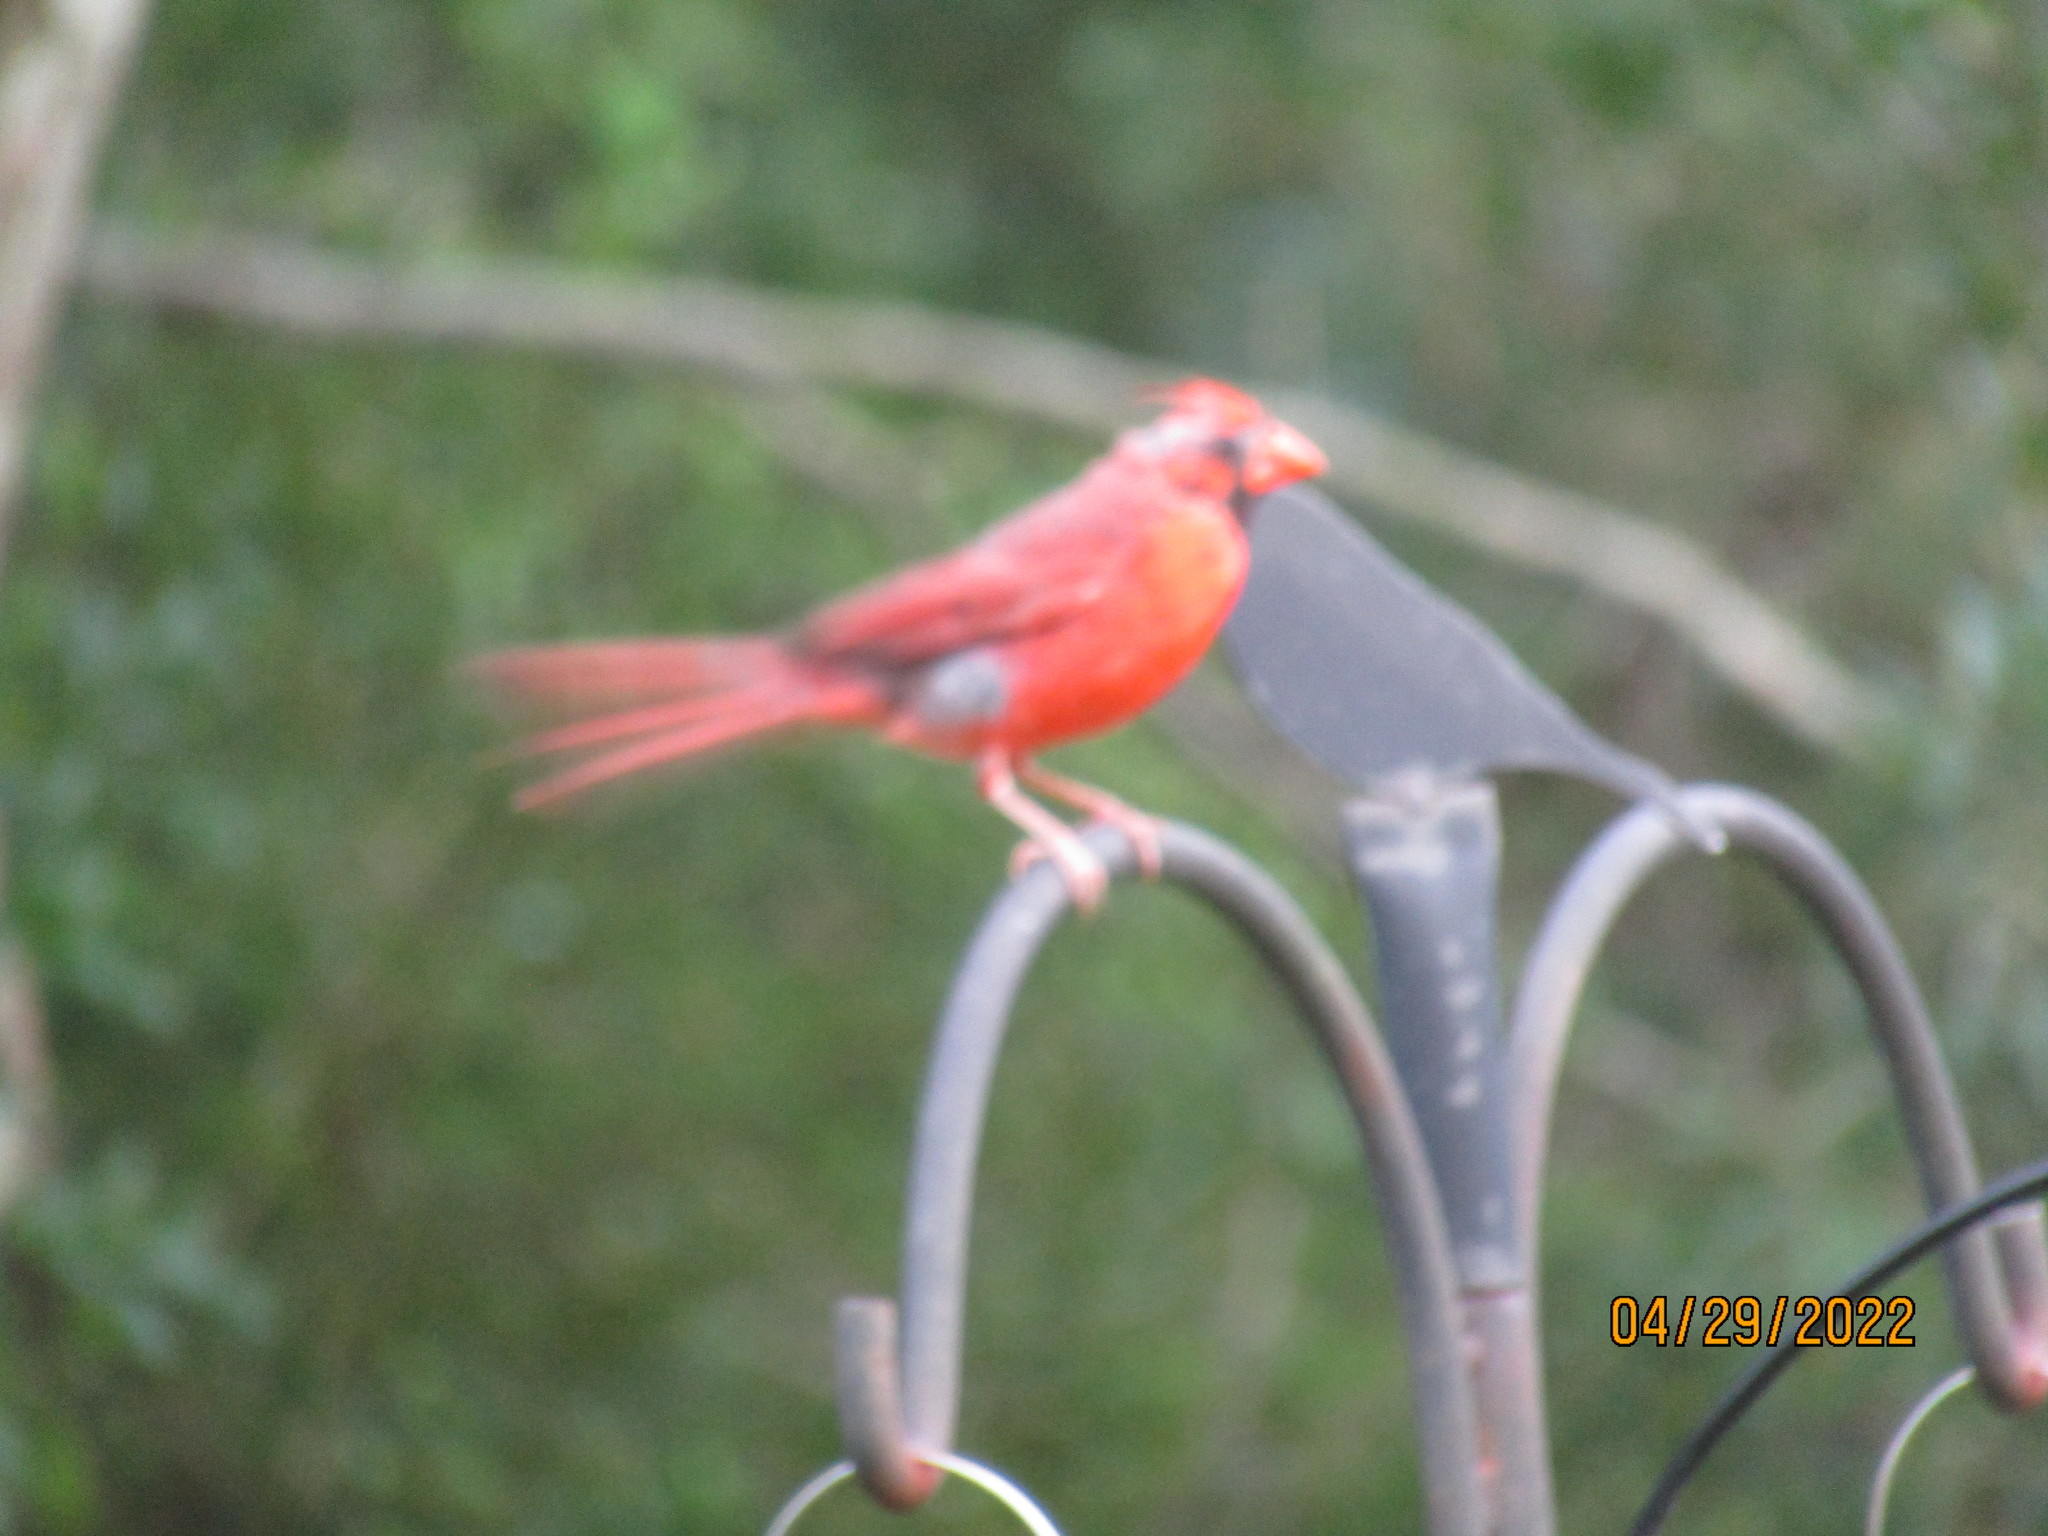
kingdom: Animalia
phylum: Chordata
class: Aves
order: Passeriformes
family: Cardinalidae
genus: Cardinalis
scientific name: Cardinalis cardinalis
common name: Northern cardinal
